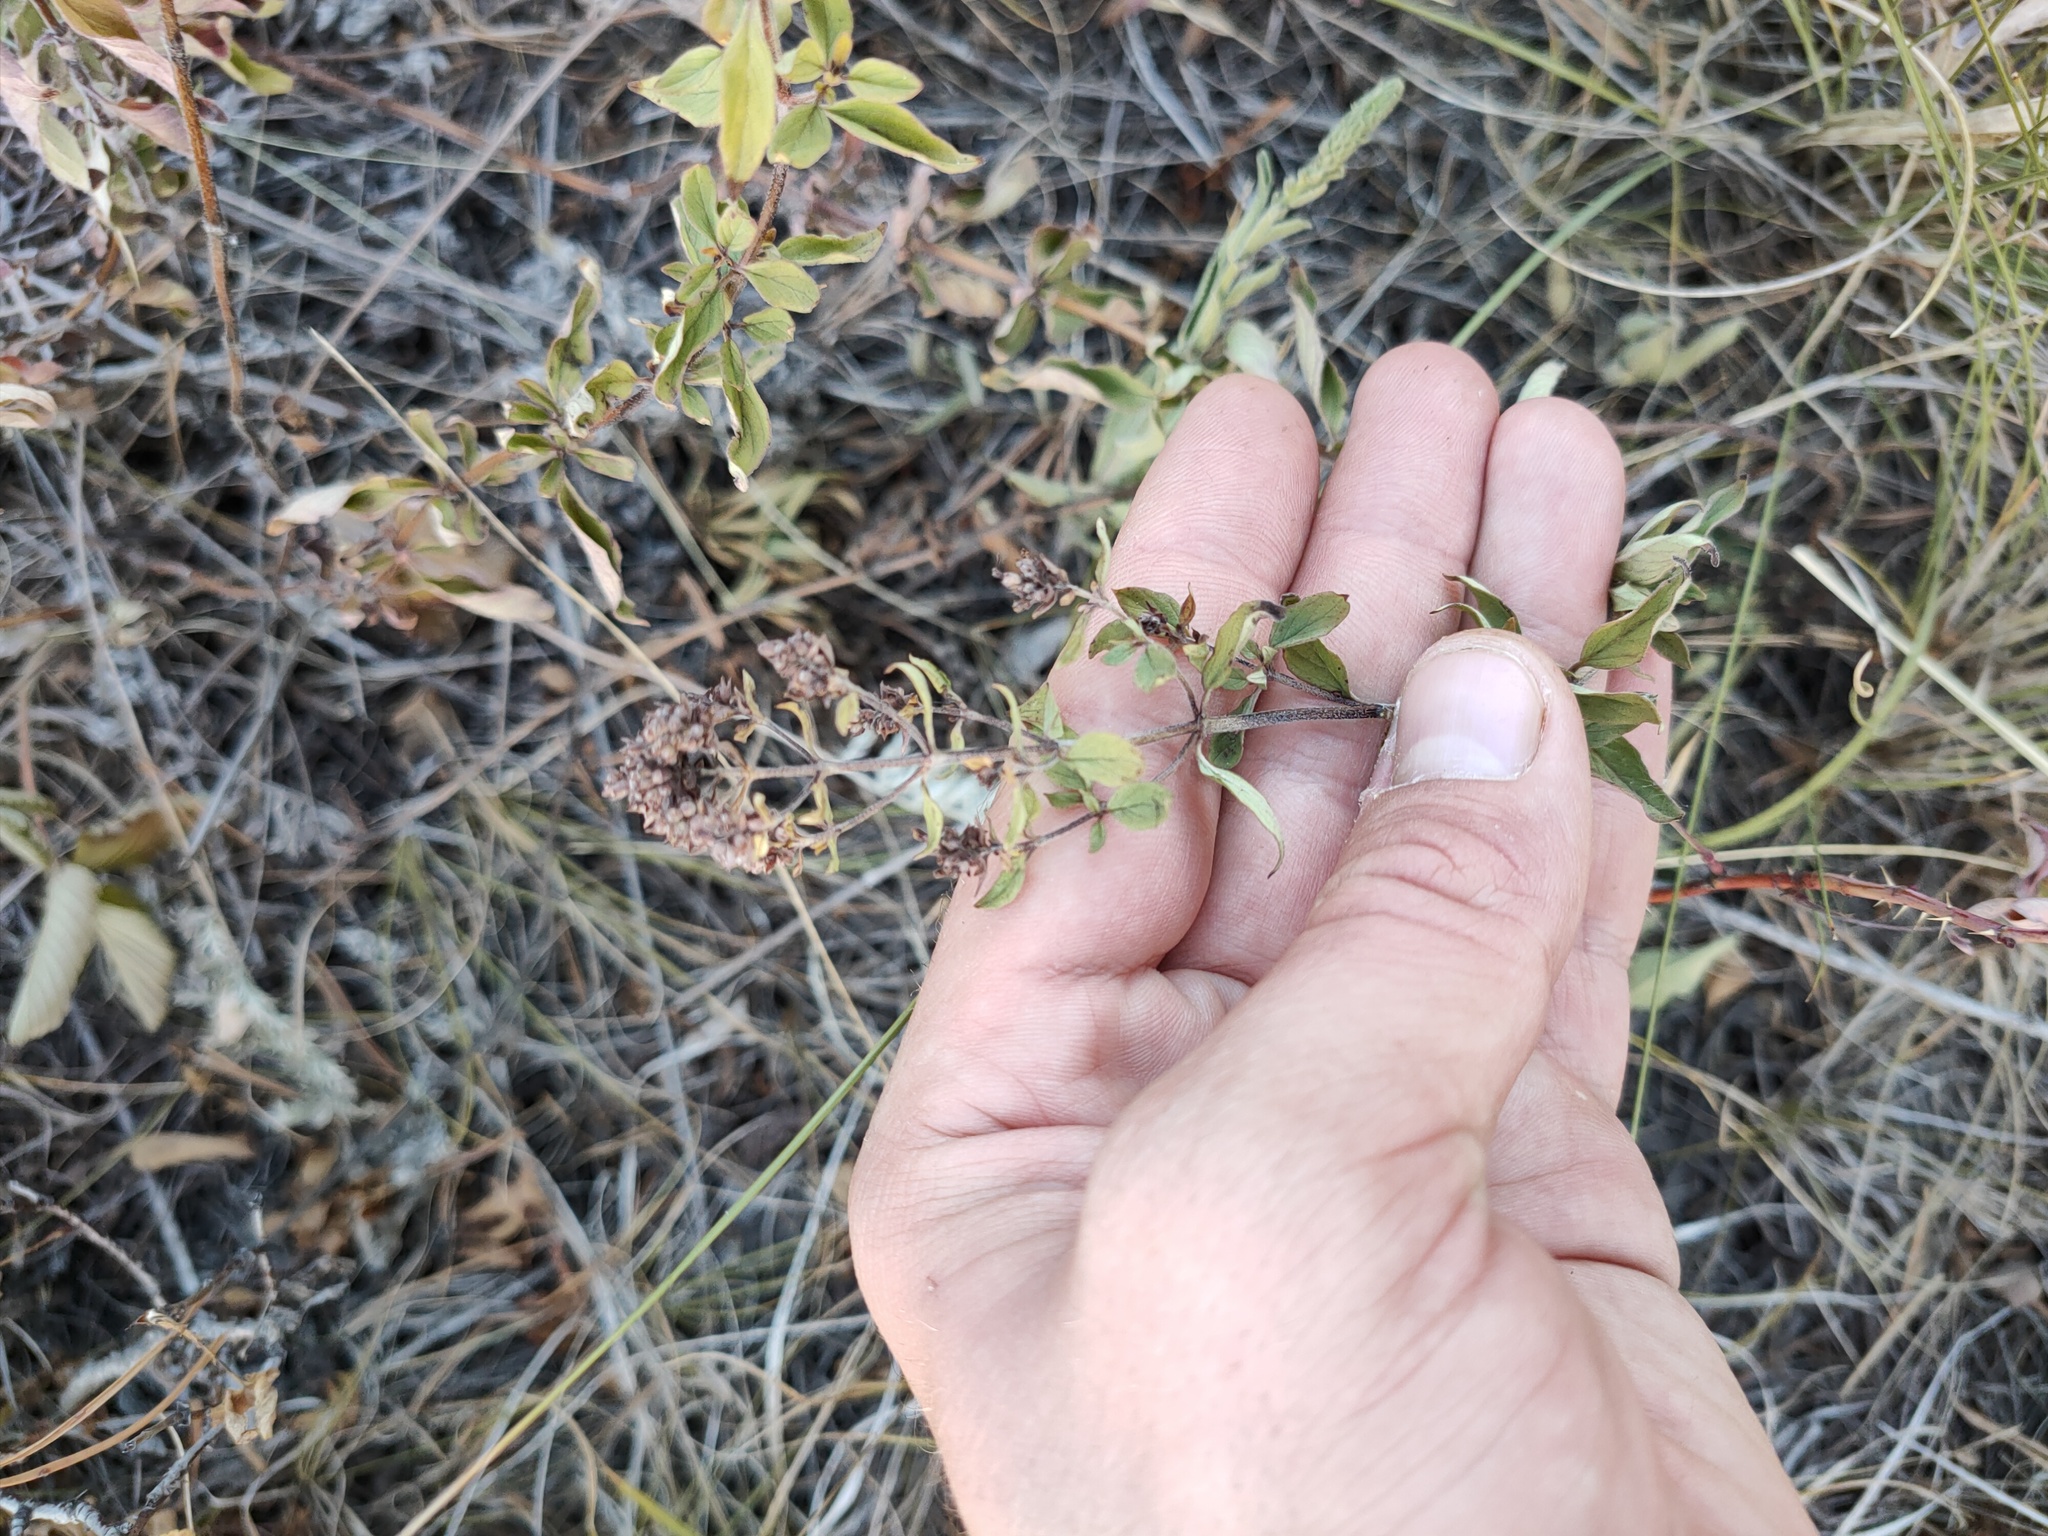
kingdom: Plantae
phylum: Tracheophyta
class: Magnoliopsida
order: Lamiales
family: Lamiaceae
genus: Origanum
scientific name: Origanum vulgare
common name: Wild marjoram
